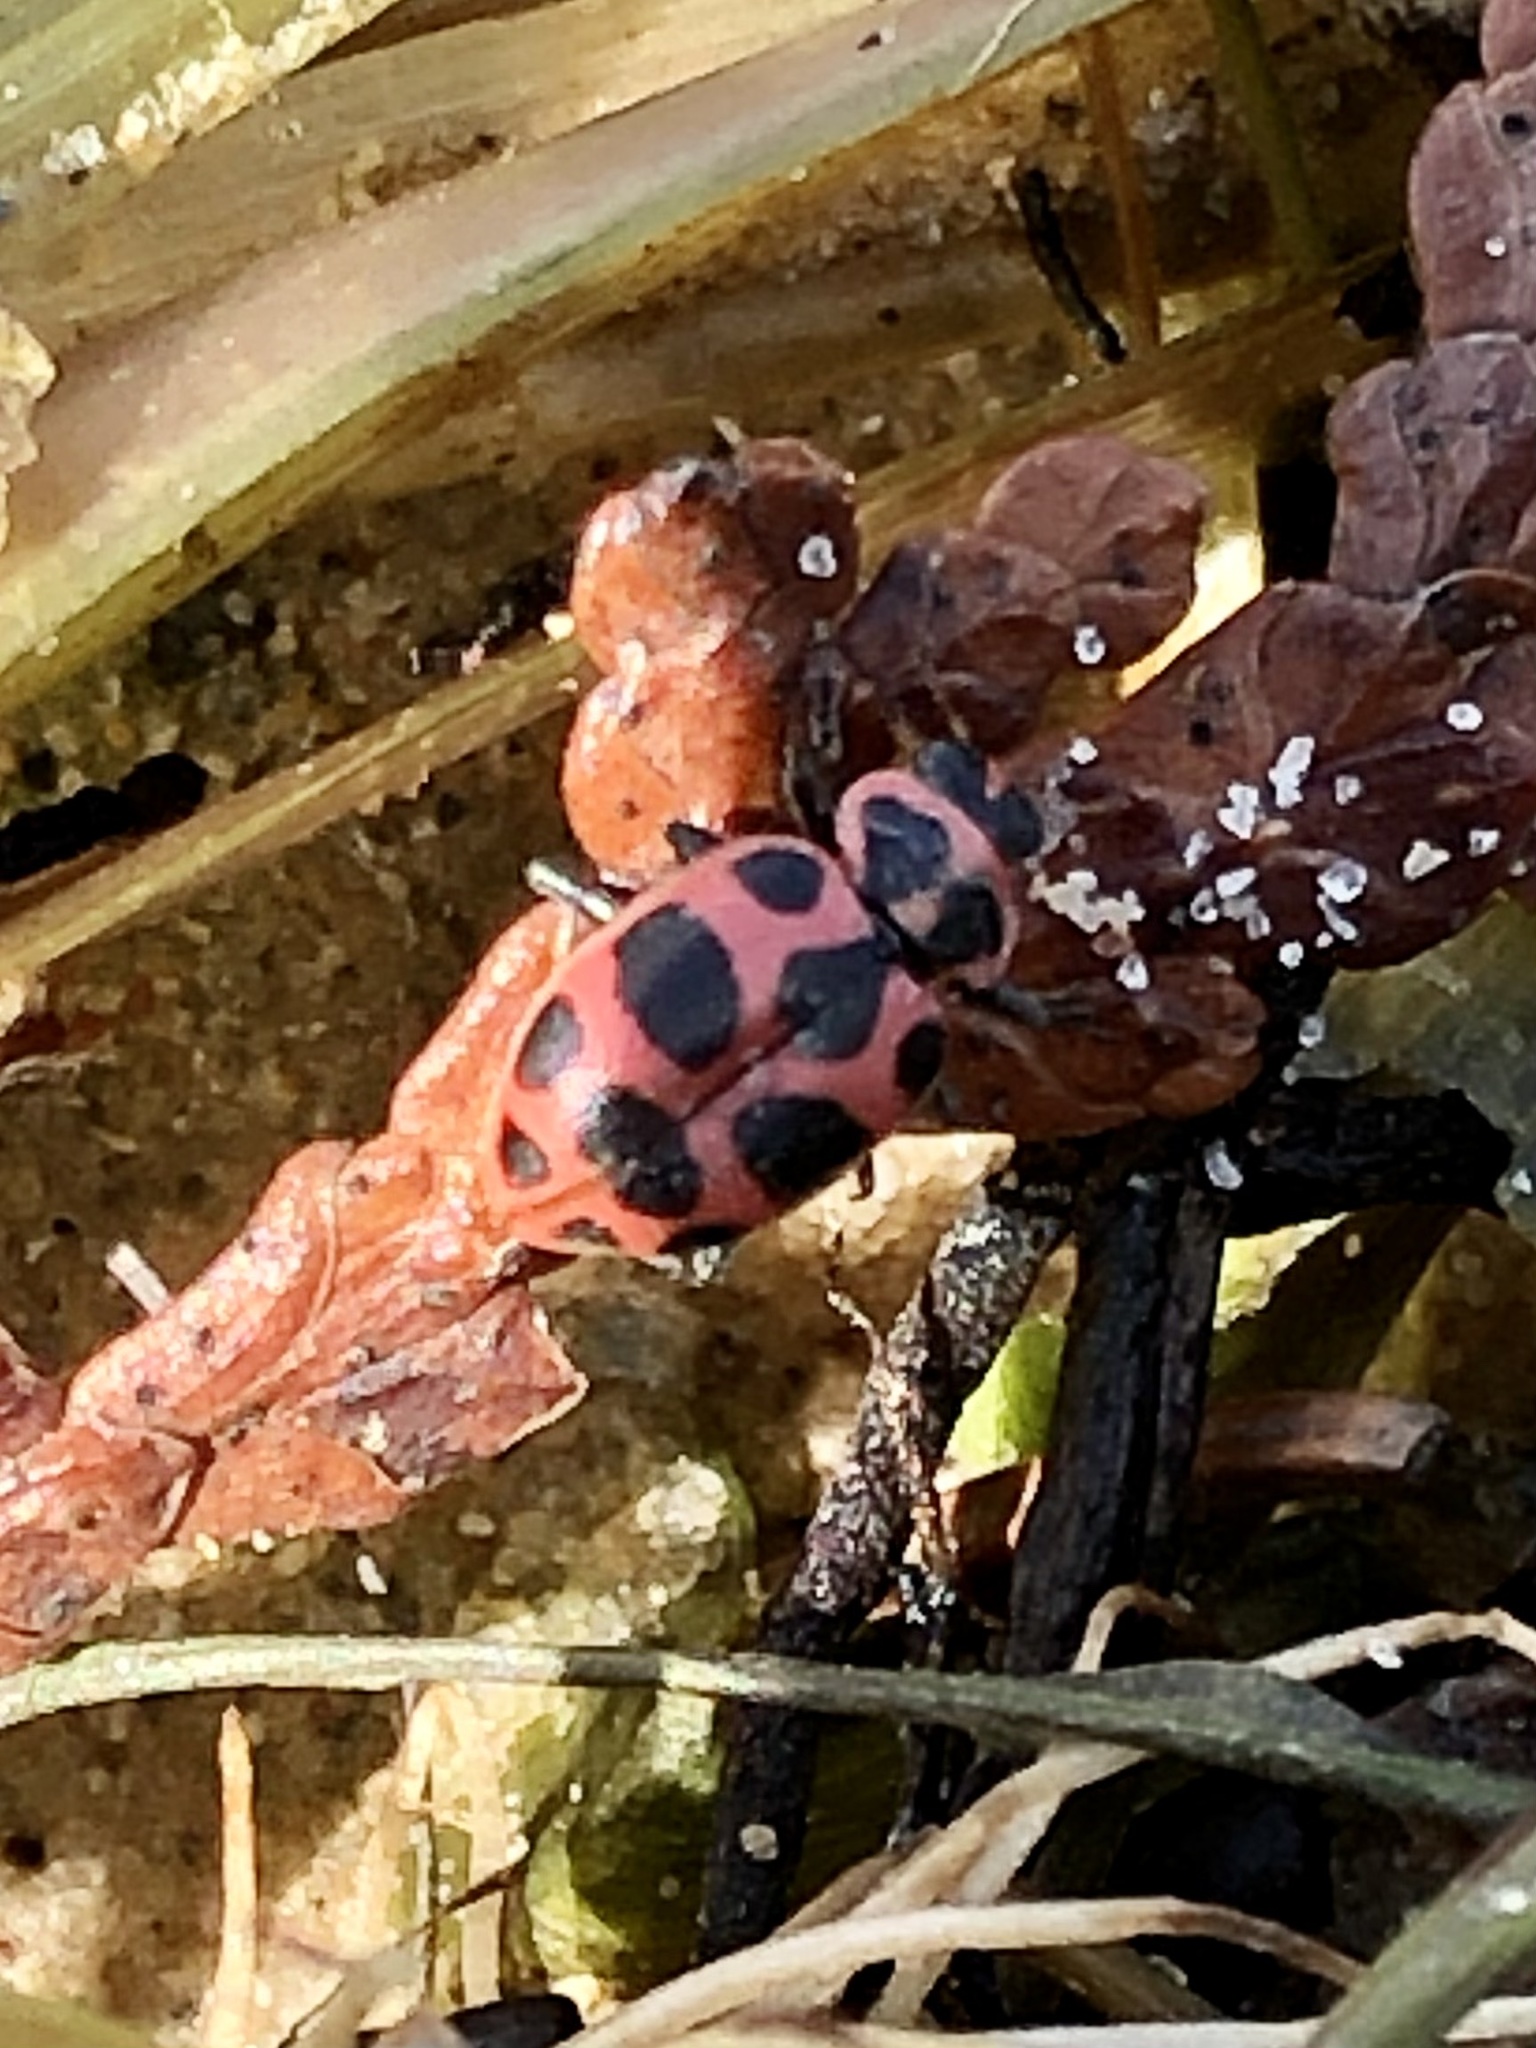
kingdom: Animalia
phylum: Arthropoda
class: Insecta
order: Coleoptera
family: Coccinellidae
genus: Coleomegilla
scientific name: Coleomegilla maculata
